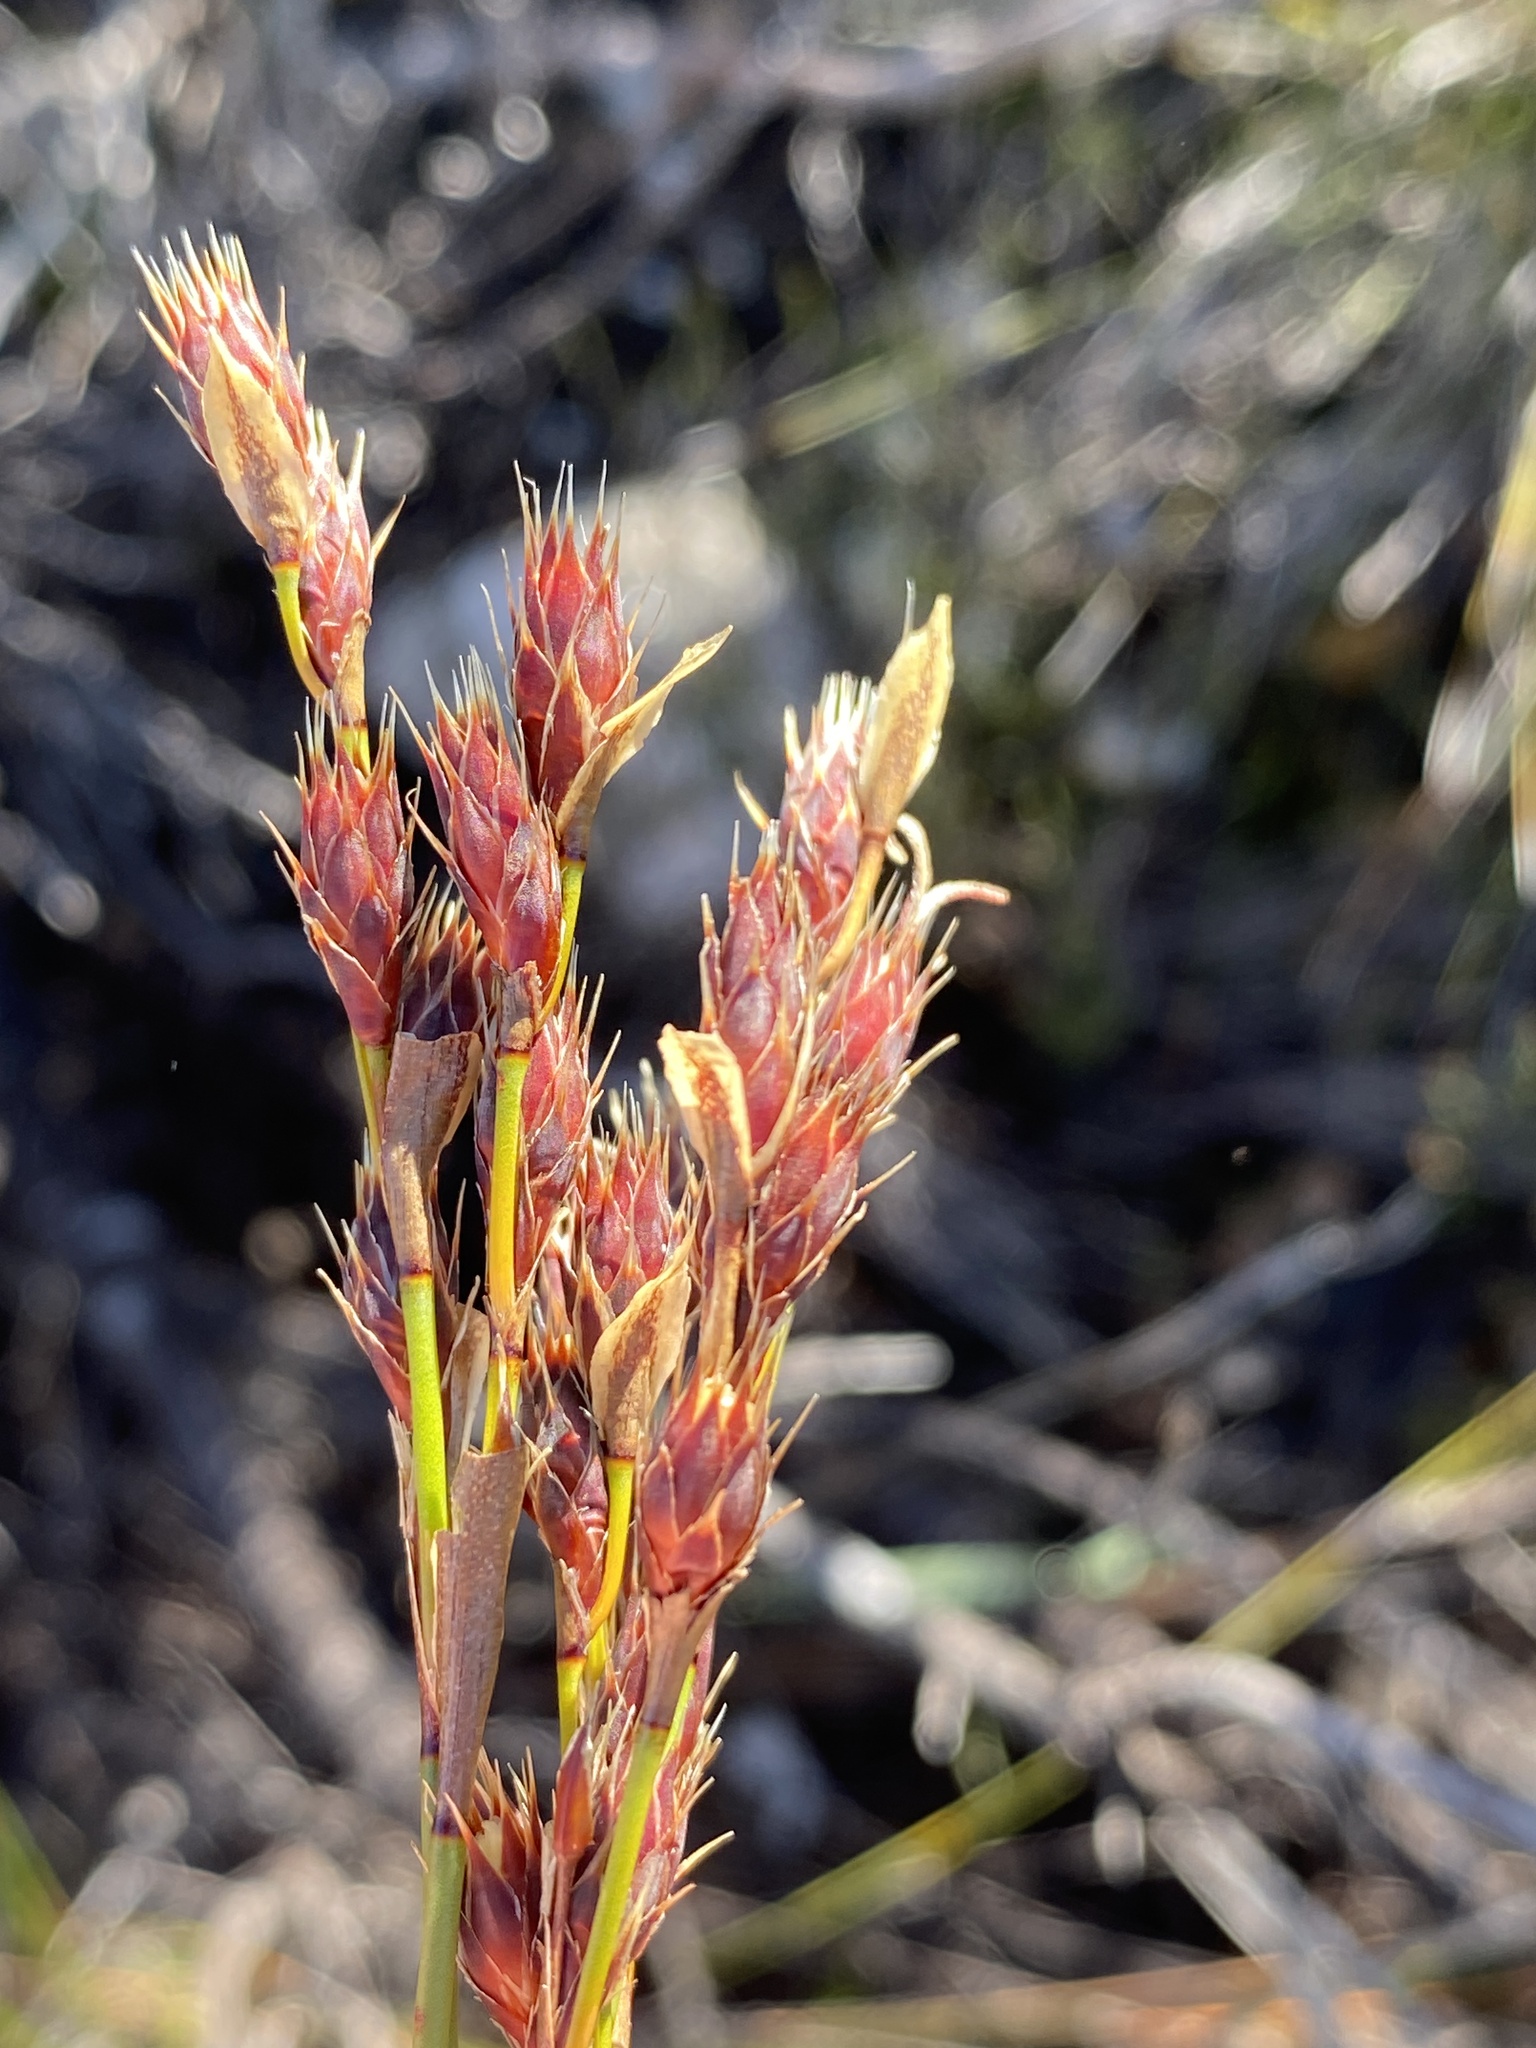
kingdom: Plantae
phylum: Tracheophyta
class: Liliopsida
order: Poales
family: Restionaceae
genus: Hypodiscus
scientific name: Hypodiscus synchroolepis
